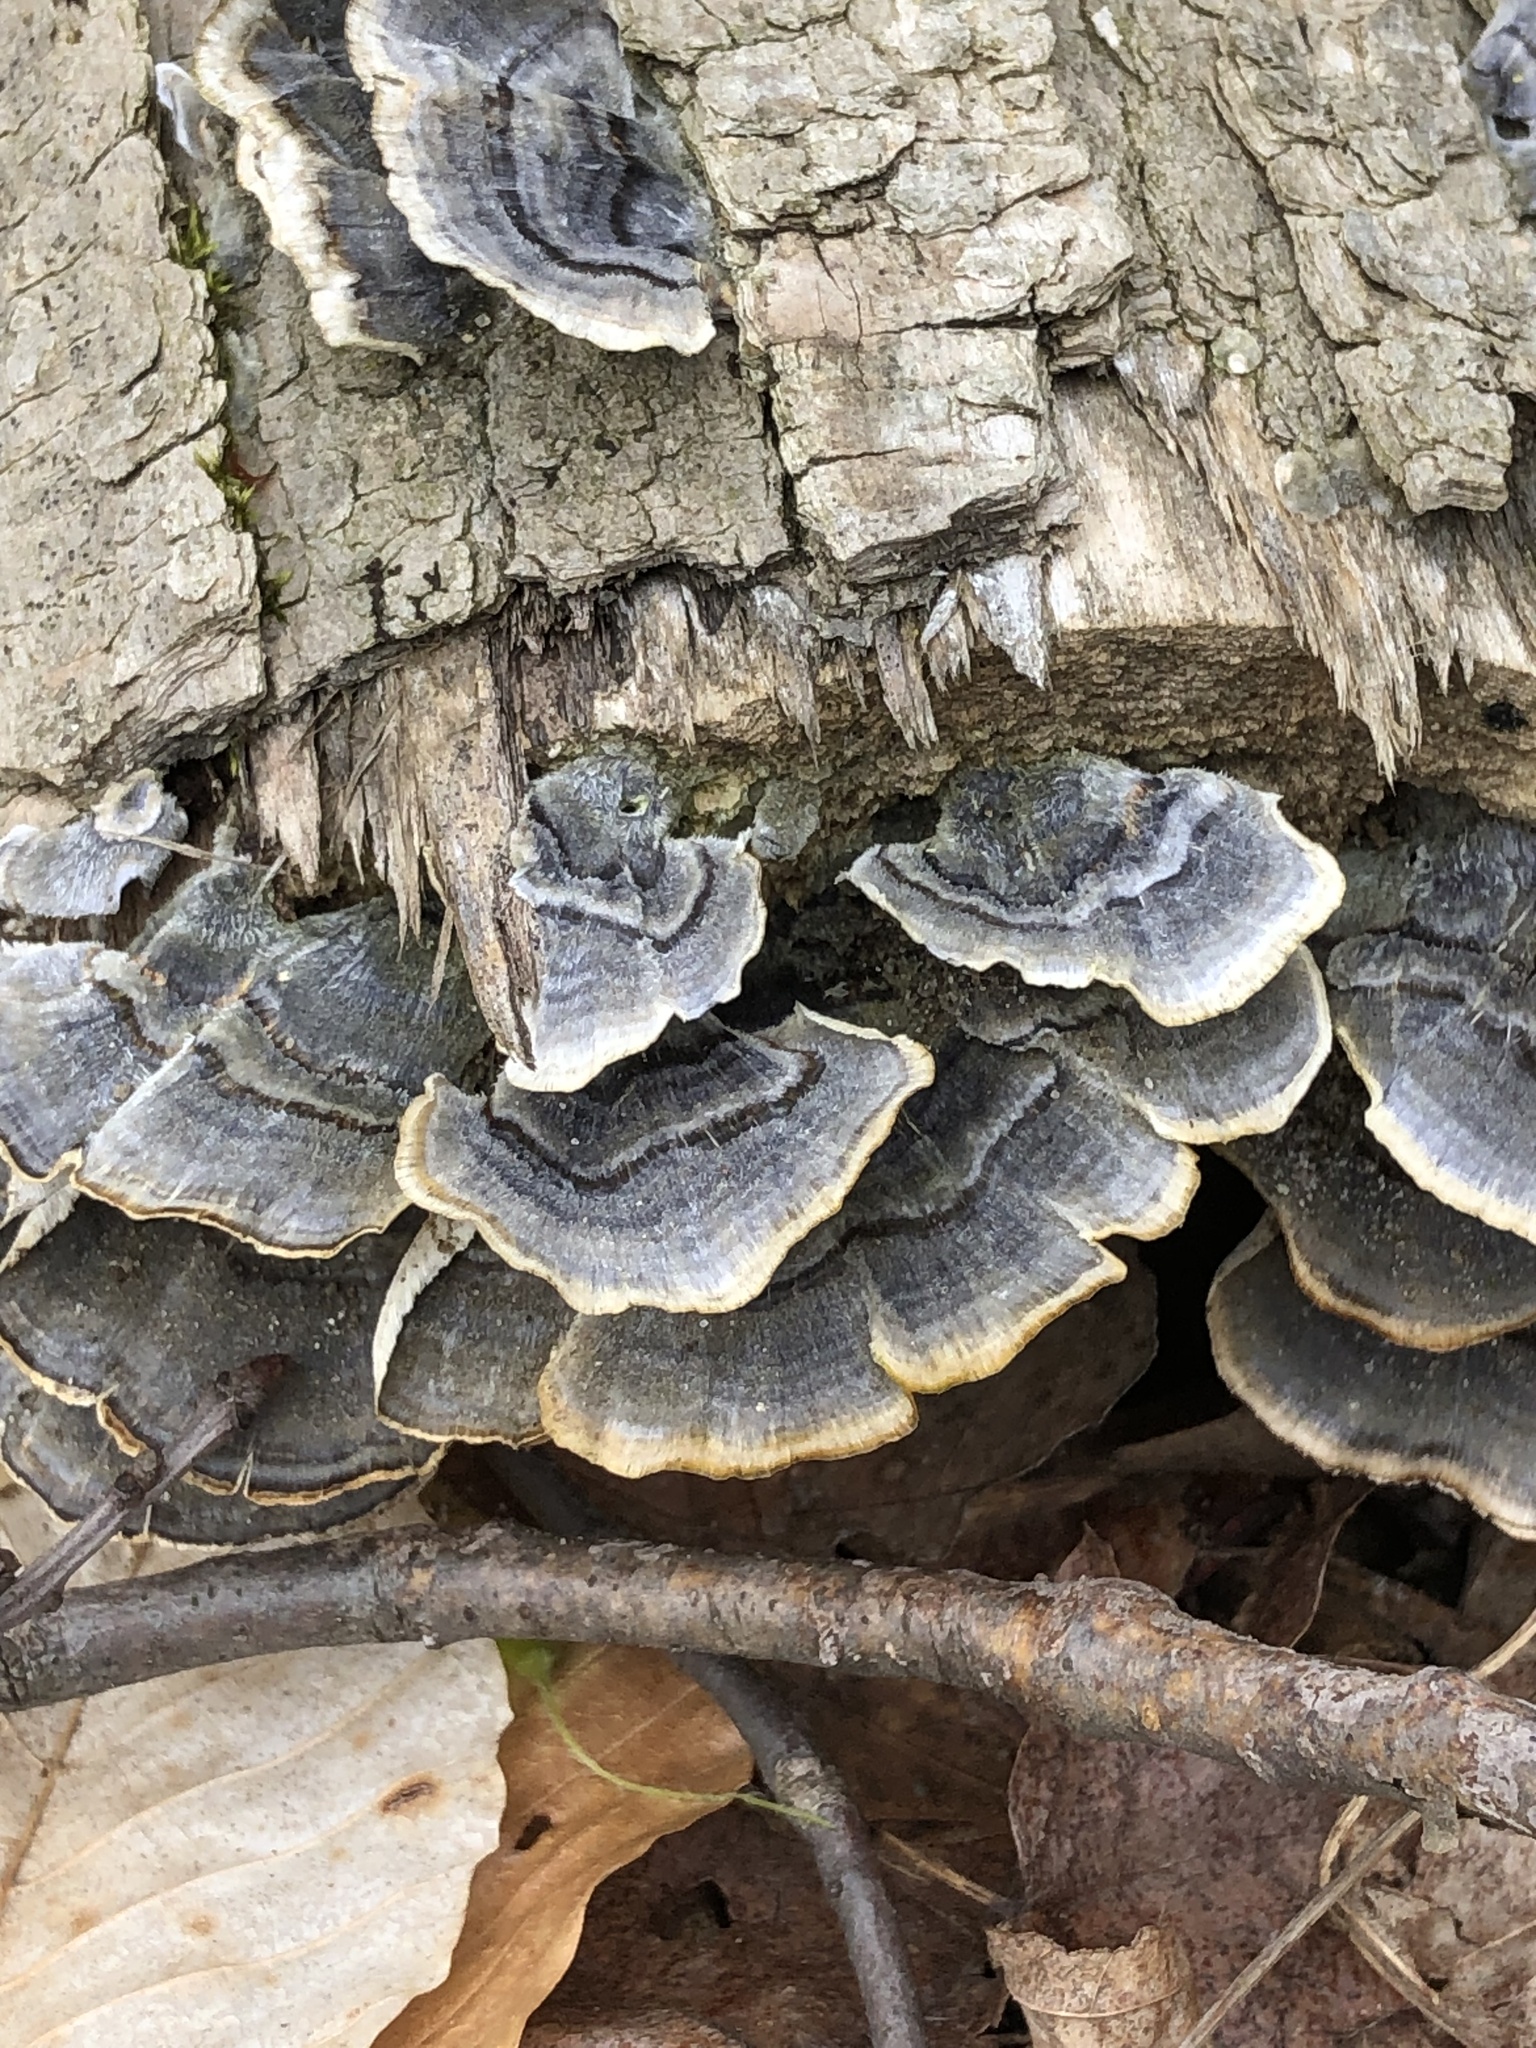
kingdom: Fungi
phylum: Basidiomycota
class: Agaricomycetes
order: Polyporales
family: Polyporaceae
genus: Trametes
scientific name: Trametes versicolor
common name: Turkeytail
